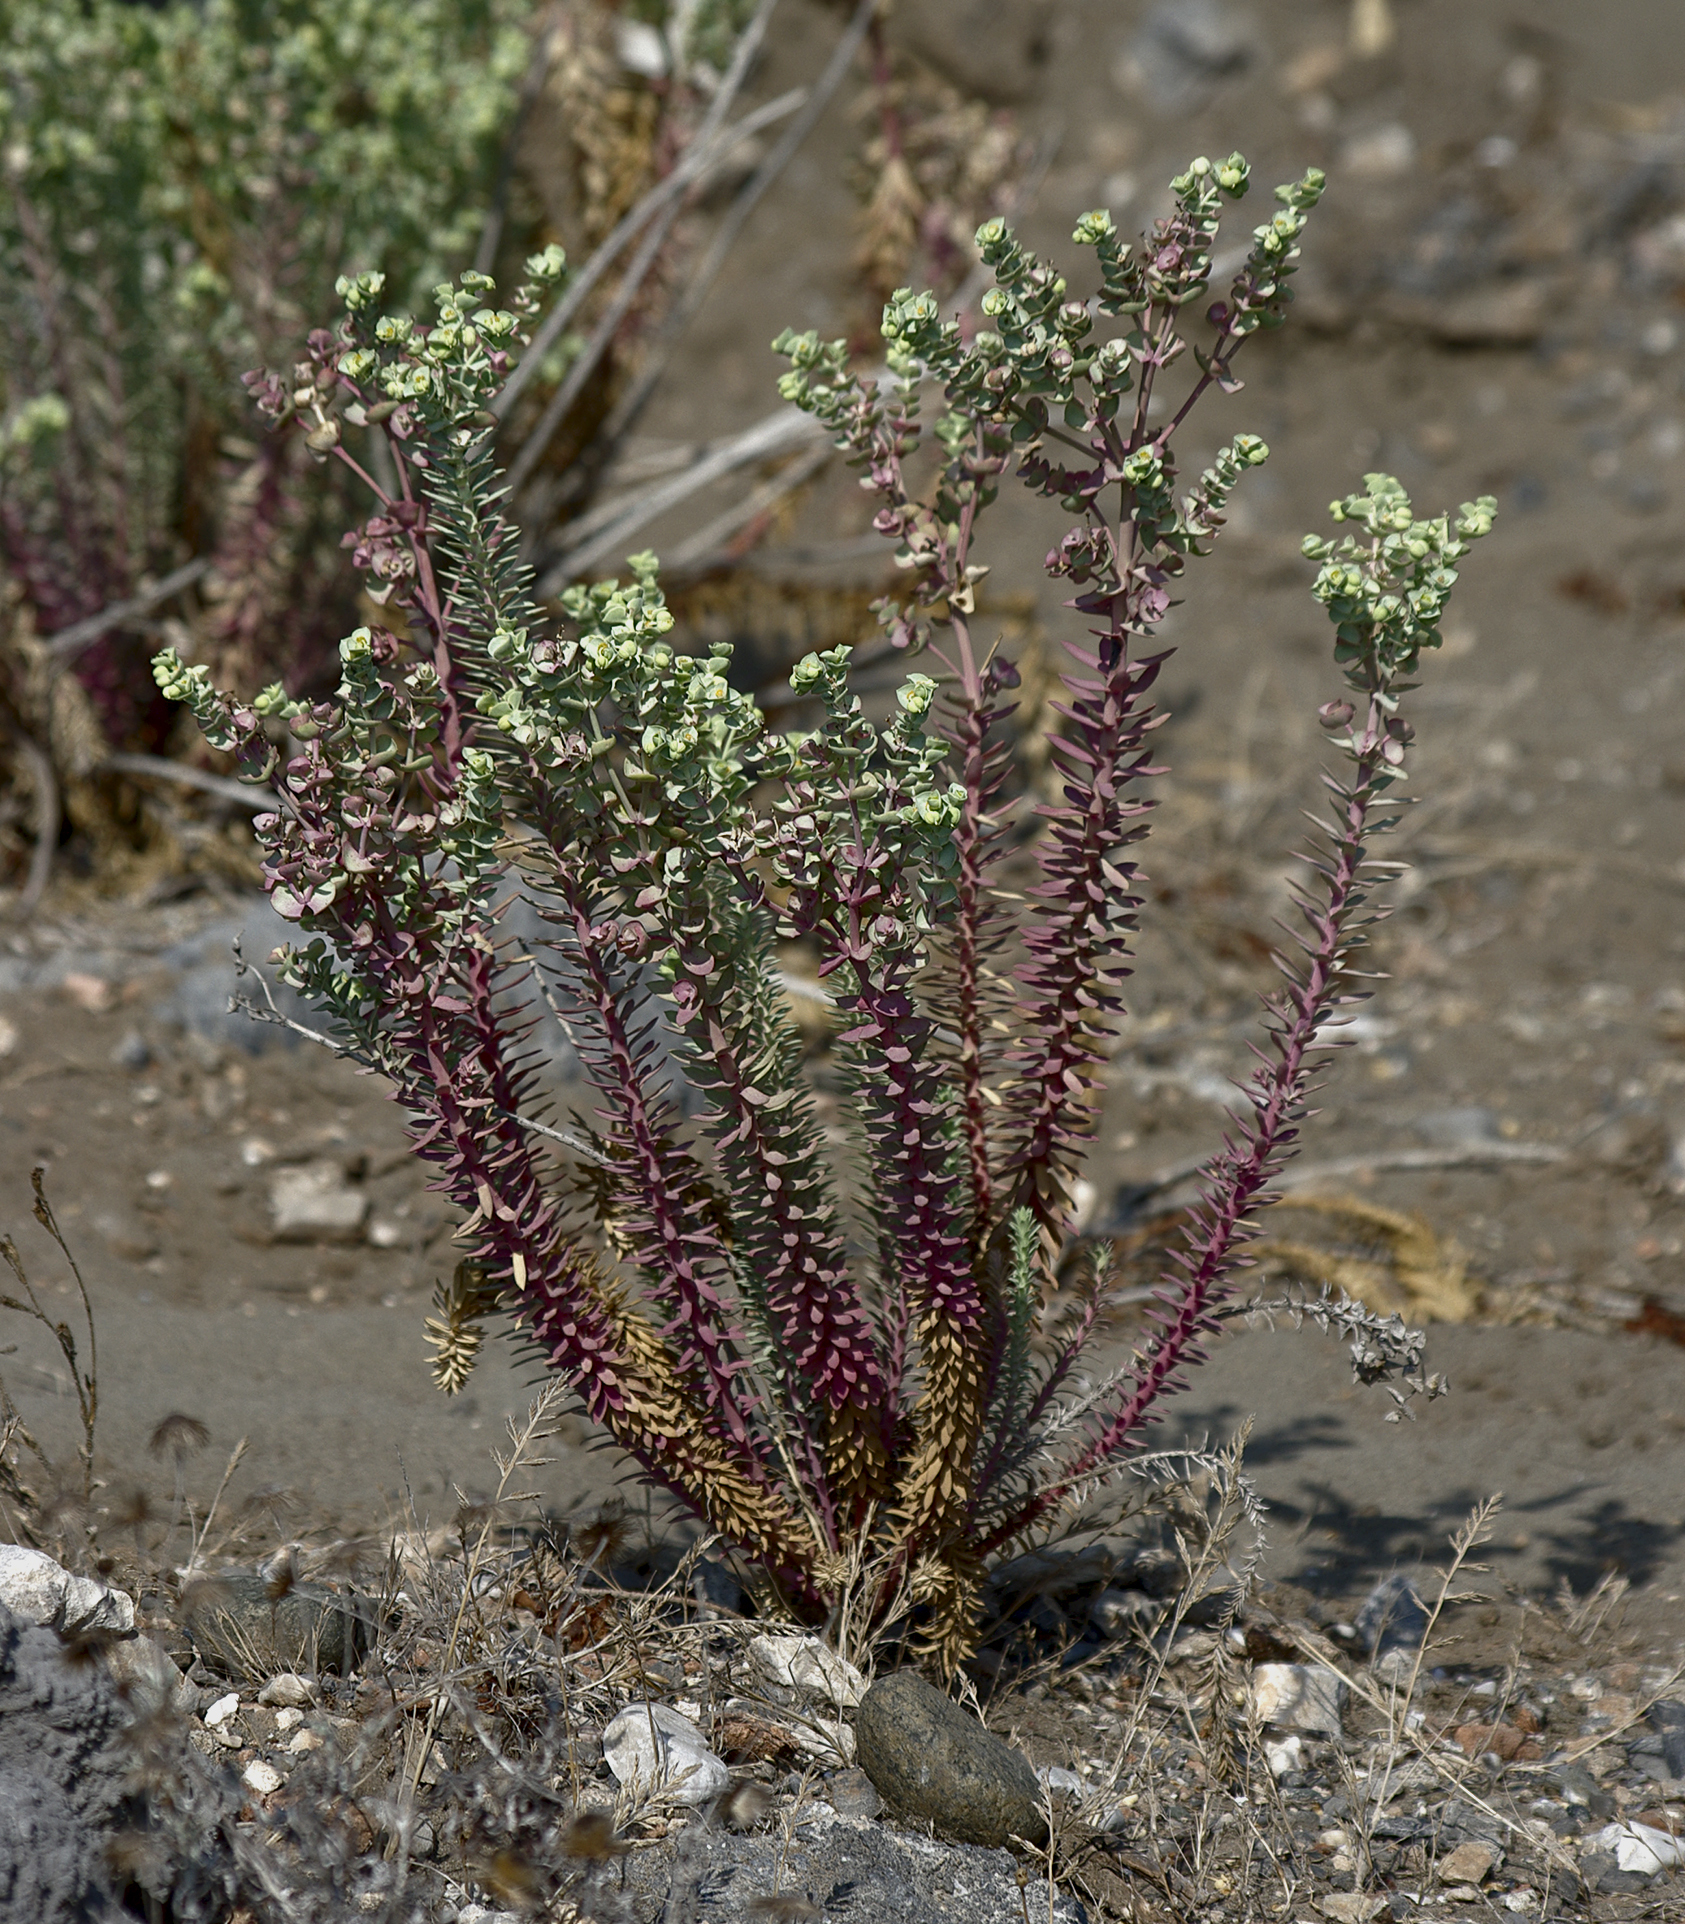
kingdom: Plantae
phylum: Tracheophyta
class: Magnoliopsida
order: Malpighiales
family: Euphorbiaceae
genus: Euphorbia
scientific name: Euphorbia paralias
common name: Sea spurge
